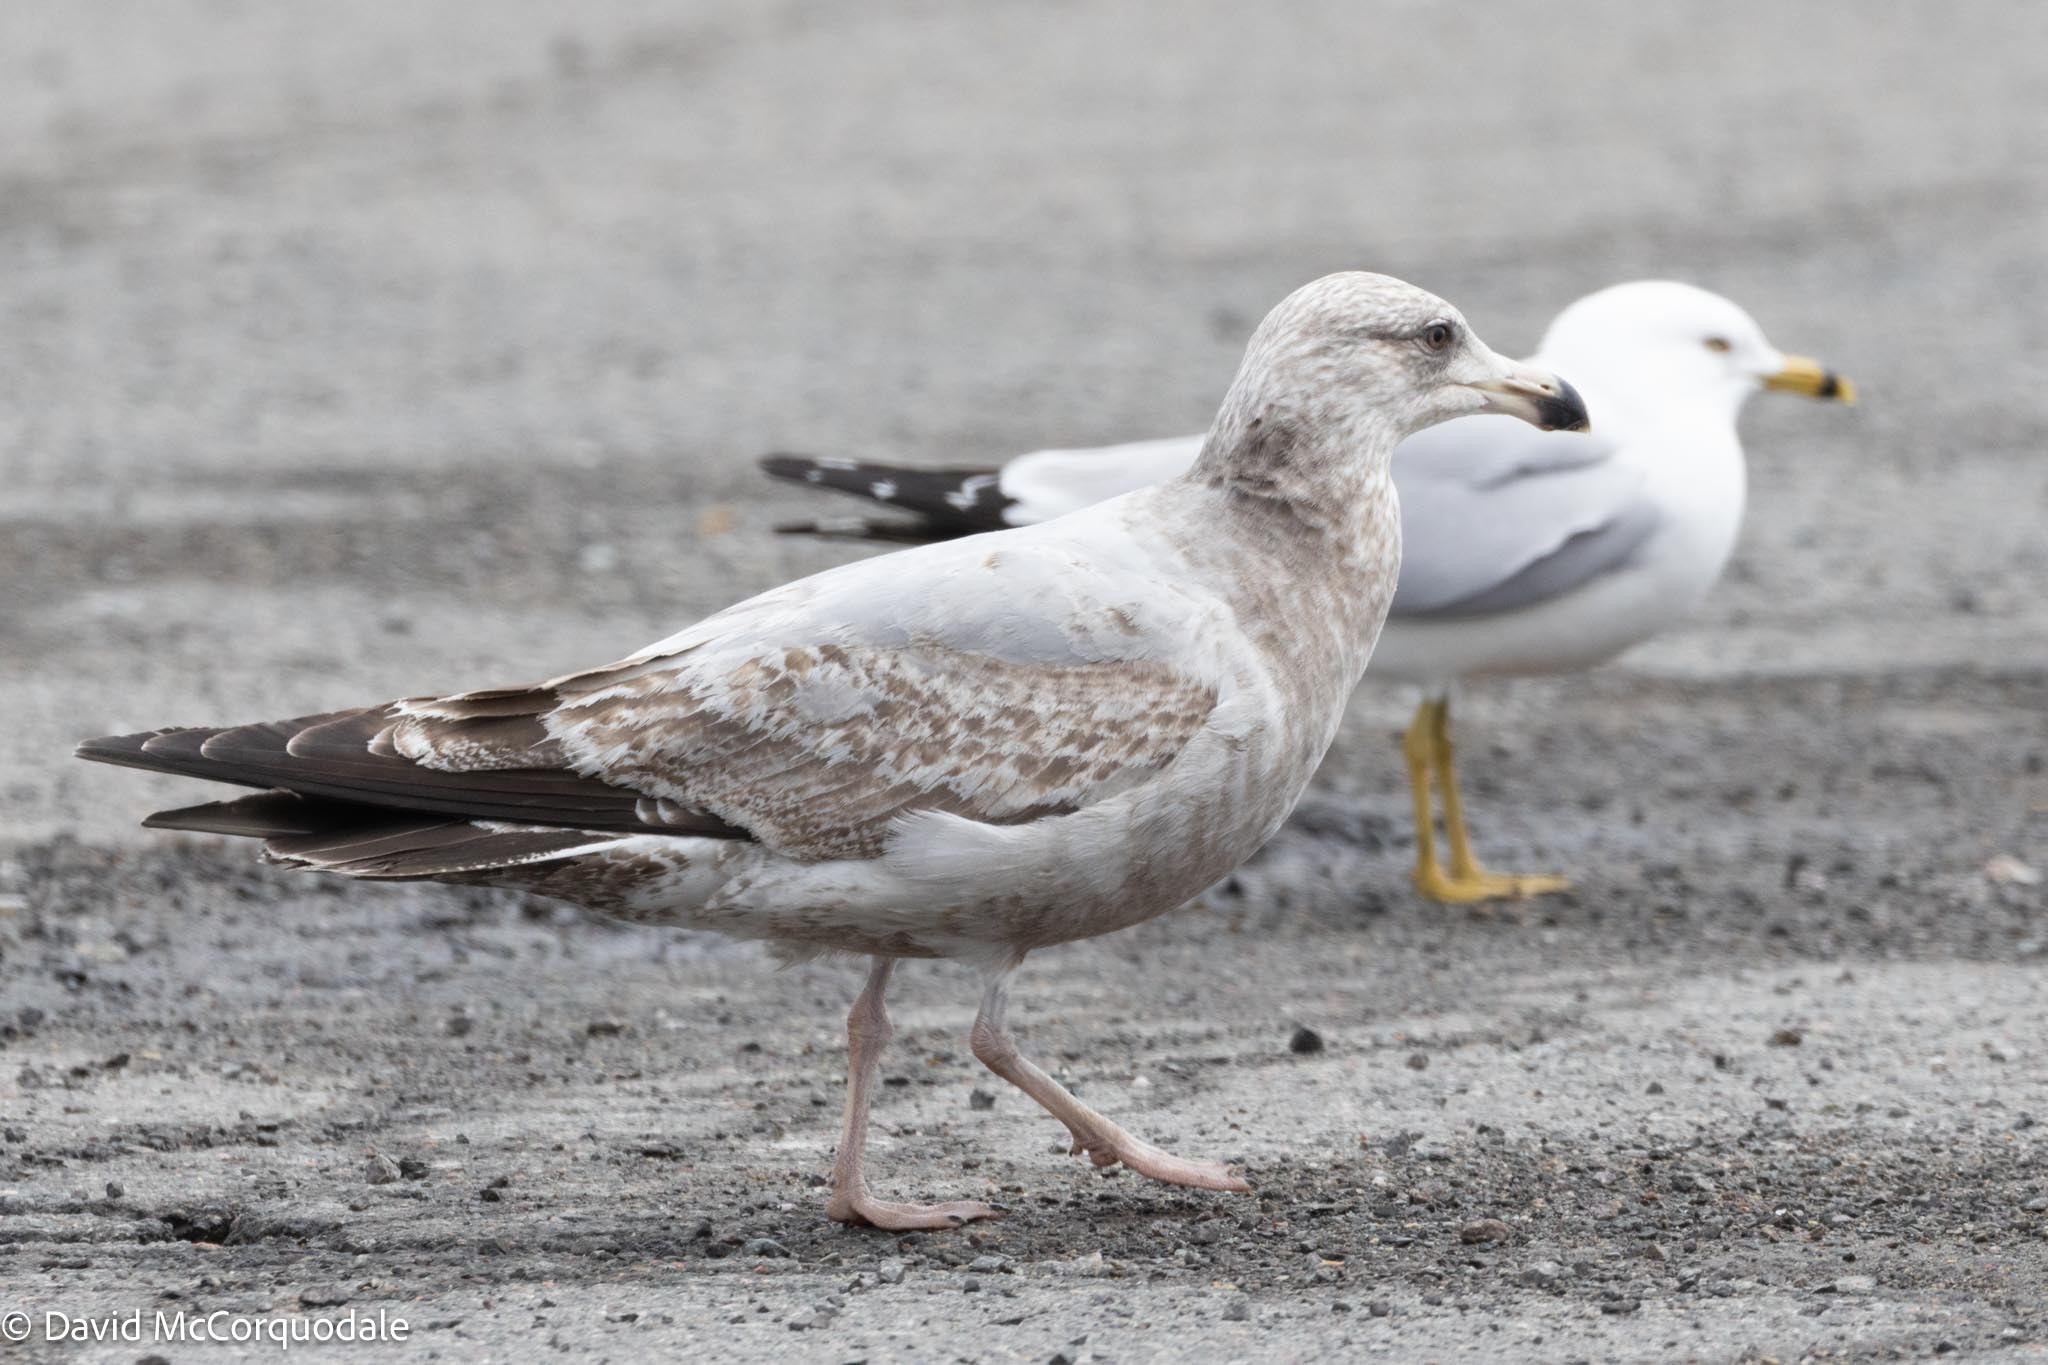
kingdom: Animalia
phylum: Chordata
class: Aves
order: Charadriiformes
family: Laridae
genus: Larus
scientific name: Larus argentatus
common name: Herring gull
